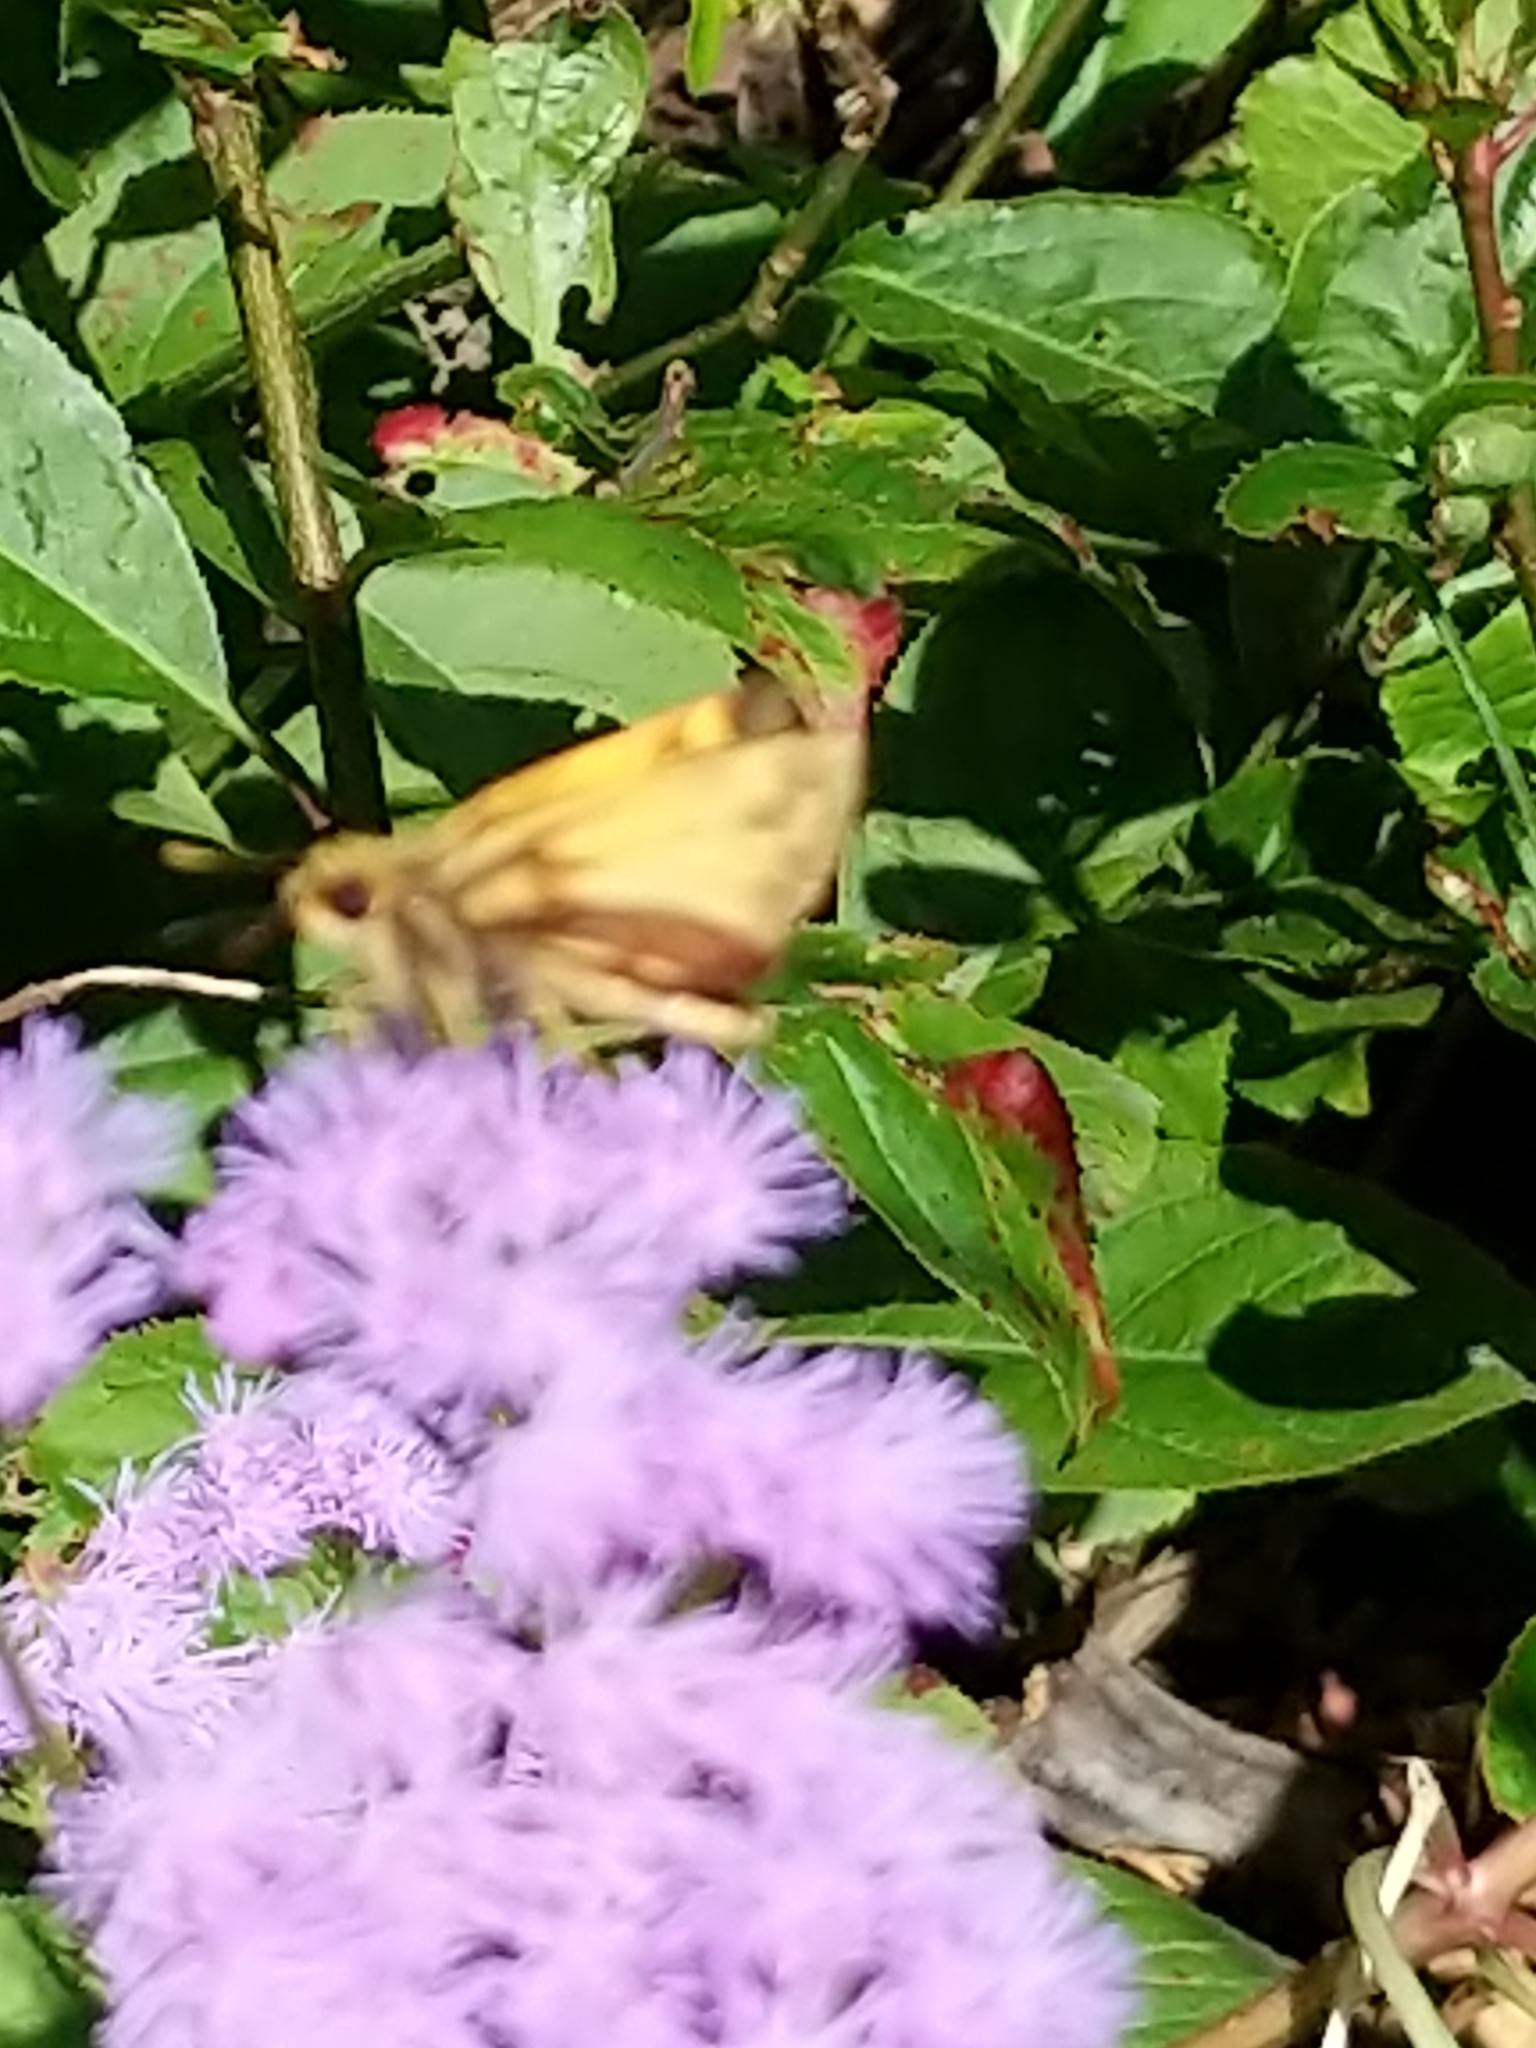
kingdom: Animalia
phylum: Arthropoda
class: Insecta
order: Lepidoptera
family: Hesperiidae
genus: Lon
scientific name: Lon zabulon
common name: Zabulon skipper
